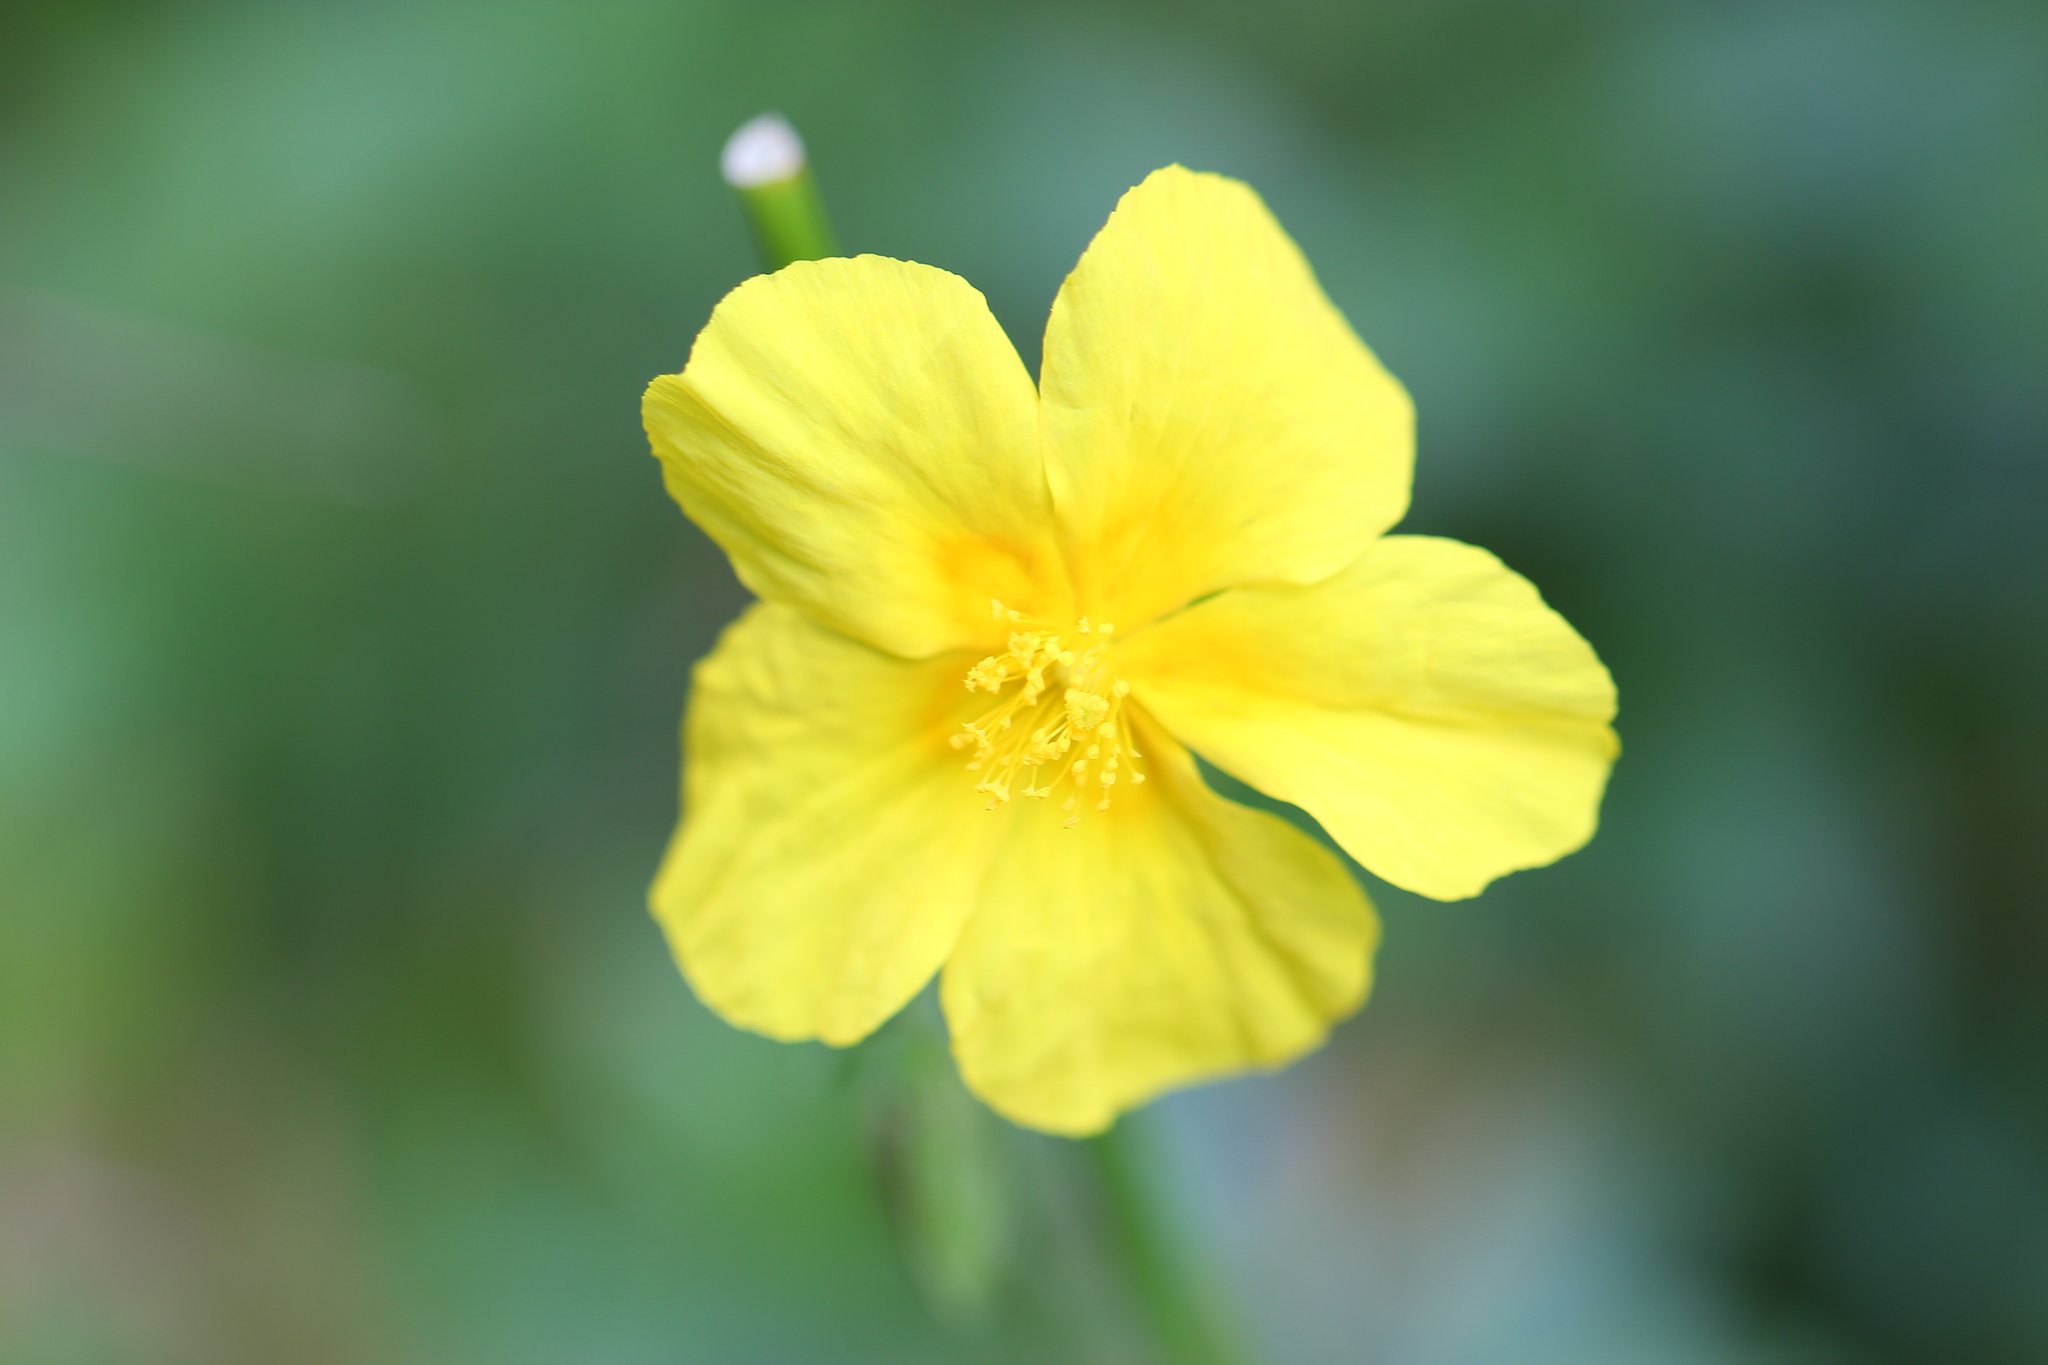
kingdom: Plantae
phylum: Tracheophyta
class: Magnoliopsida
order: Malvales
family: Cistaceae
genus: Helianthemum
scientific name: Helianthemum nummularium
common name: Common rock-rose
